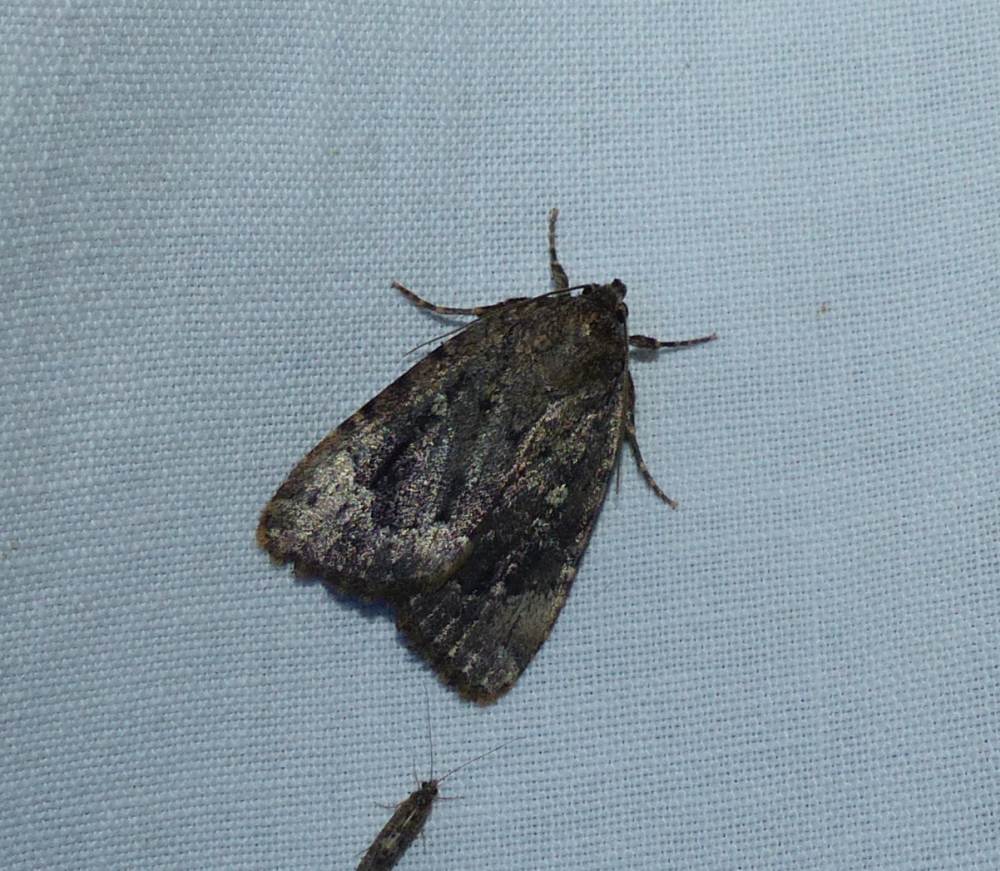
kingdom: Animalia
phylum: Arthropoda
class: Insecta
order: Lepidoptera
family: Noctuidae
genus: Amphipyra
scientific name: Amphipyra pyramidoides
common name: American copper underwing
